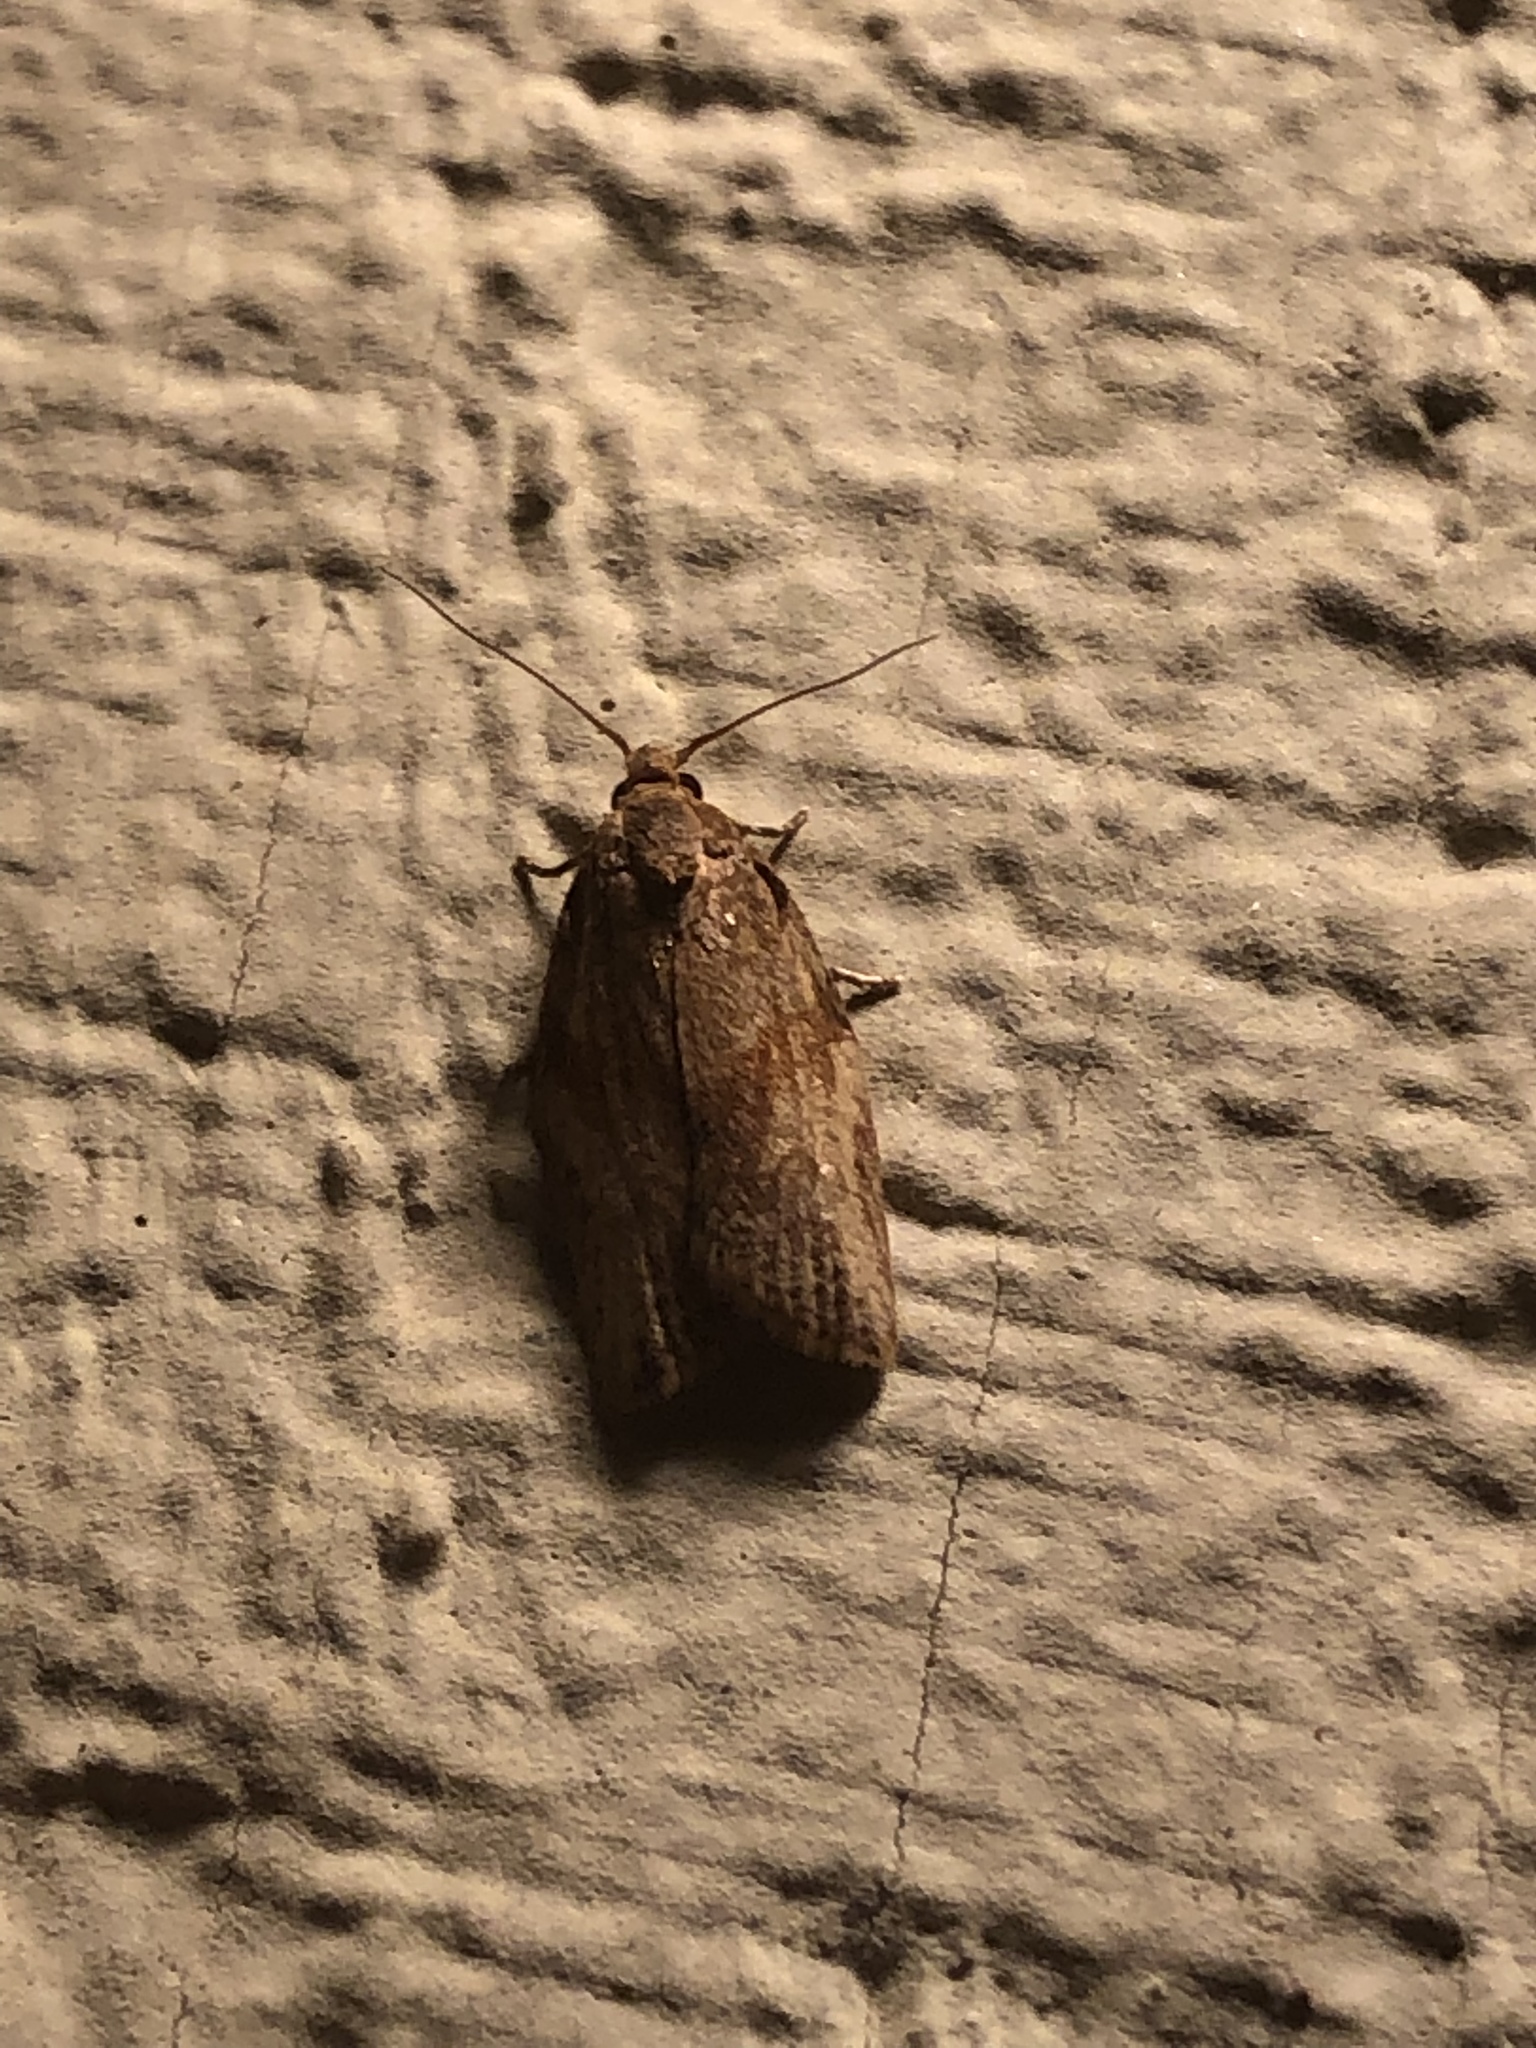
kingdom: Animalia
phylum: Arthropoda
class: Insecta
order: Lepidoptera
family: Tortricidae
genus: Epiphyas
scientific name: Epiphyas postvittana
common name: Light brown apple moth
